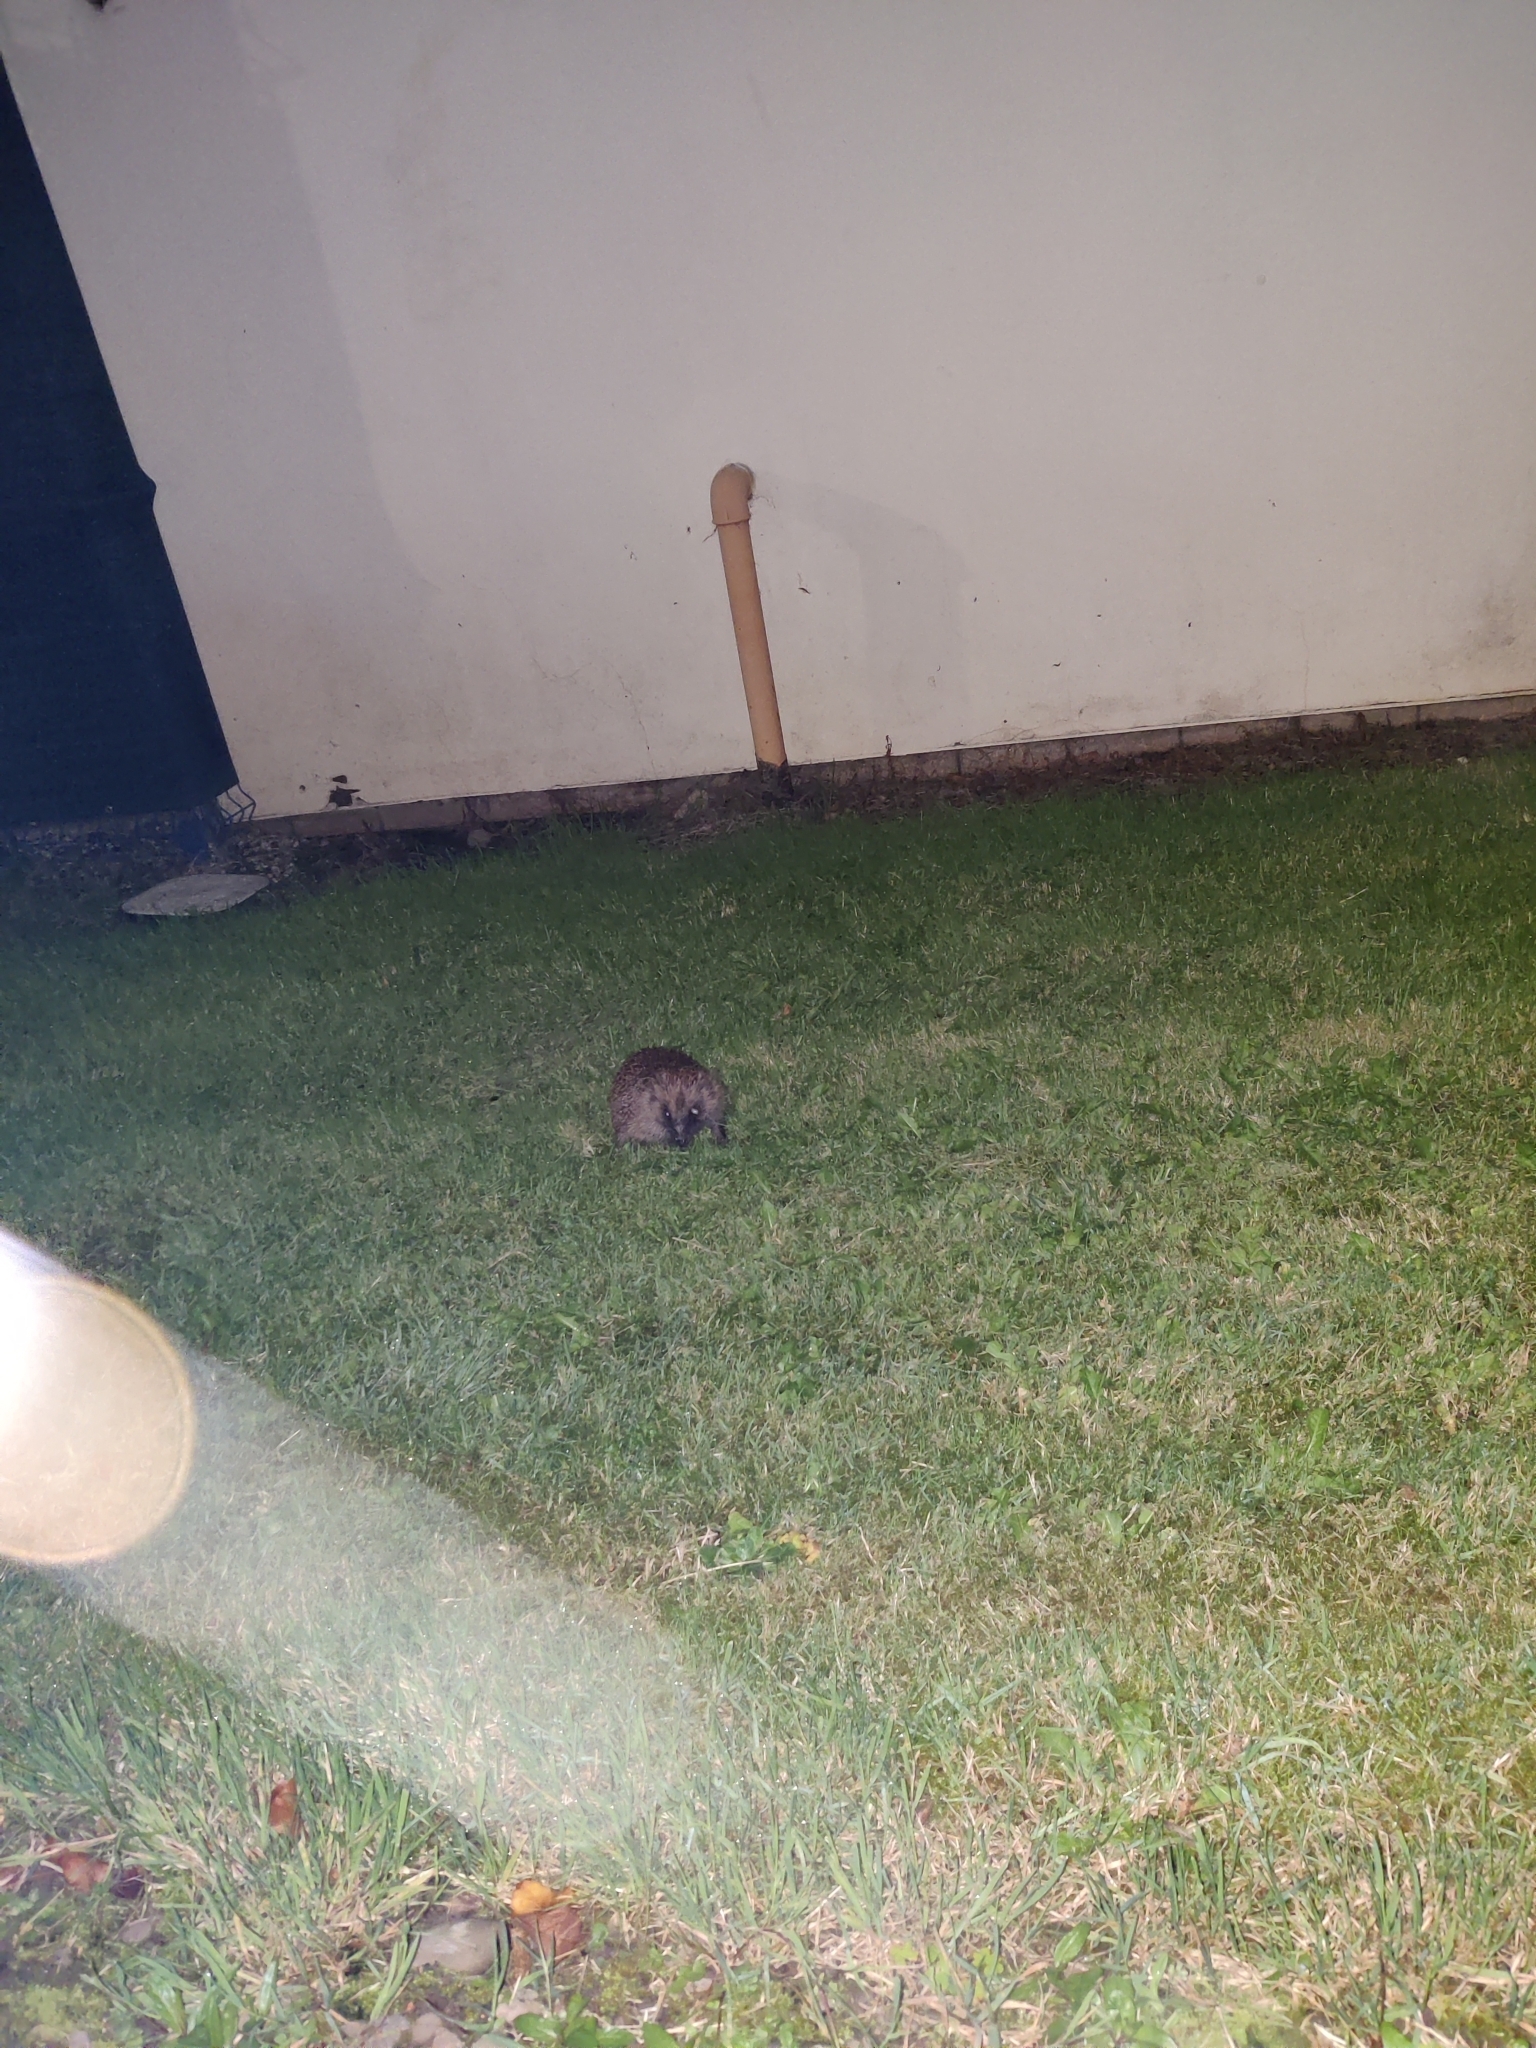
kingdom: Animalia
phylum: Chordata
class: Mammalia
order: Erinaceomorpha
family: Erinaceidae
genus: Erinaceus
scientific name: Erinaceus europaeus
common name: West european hedgehog
